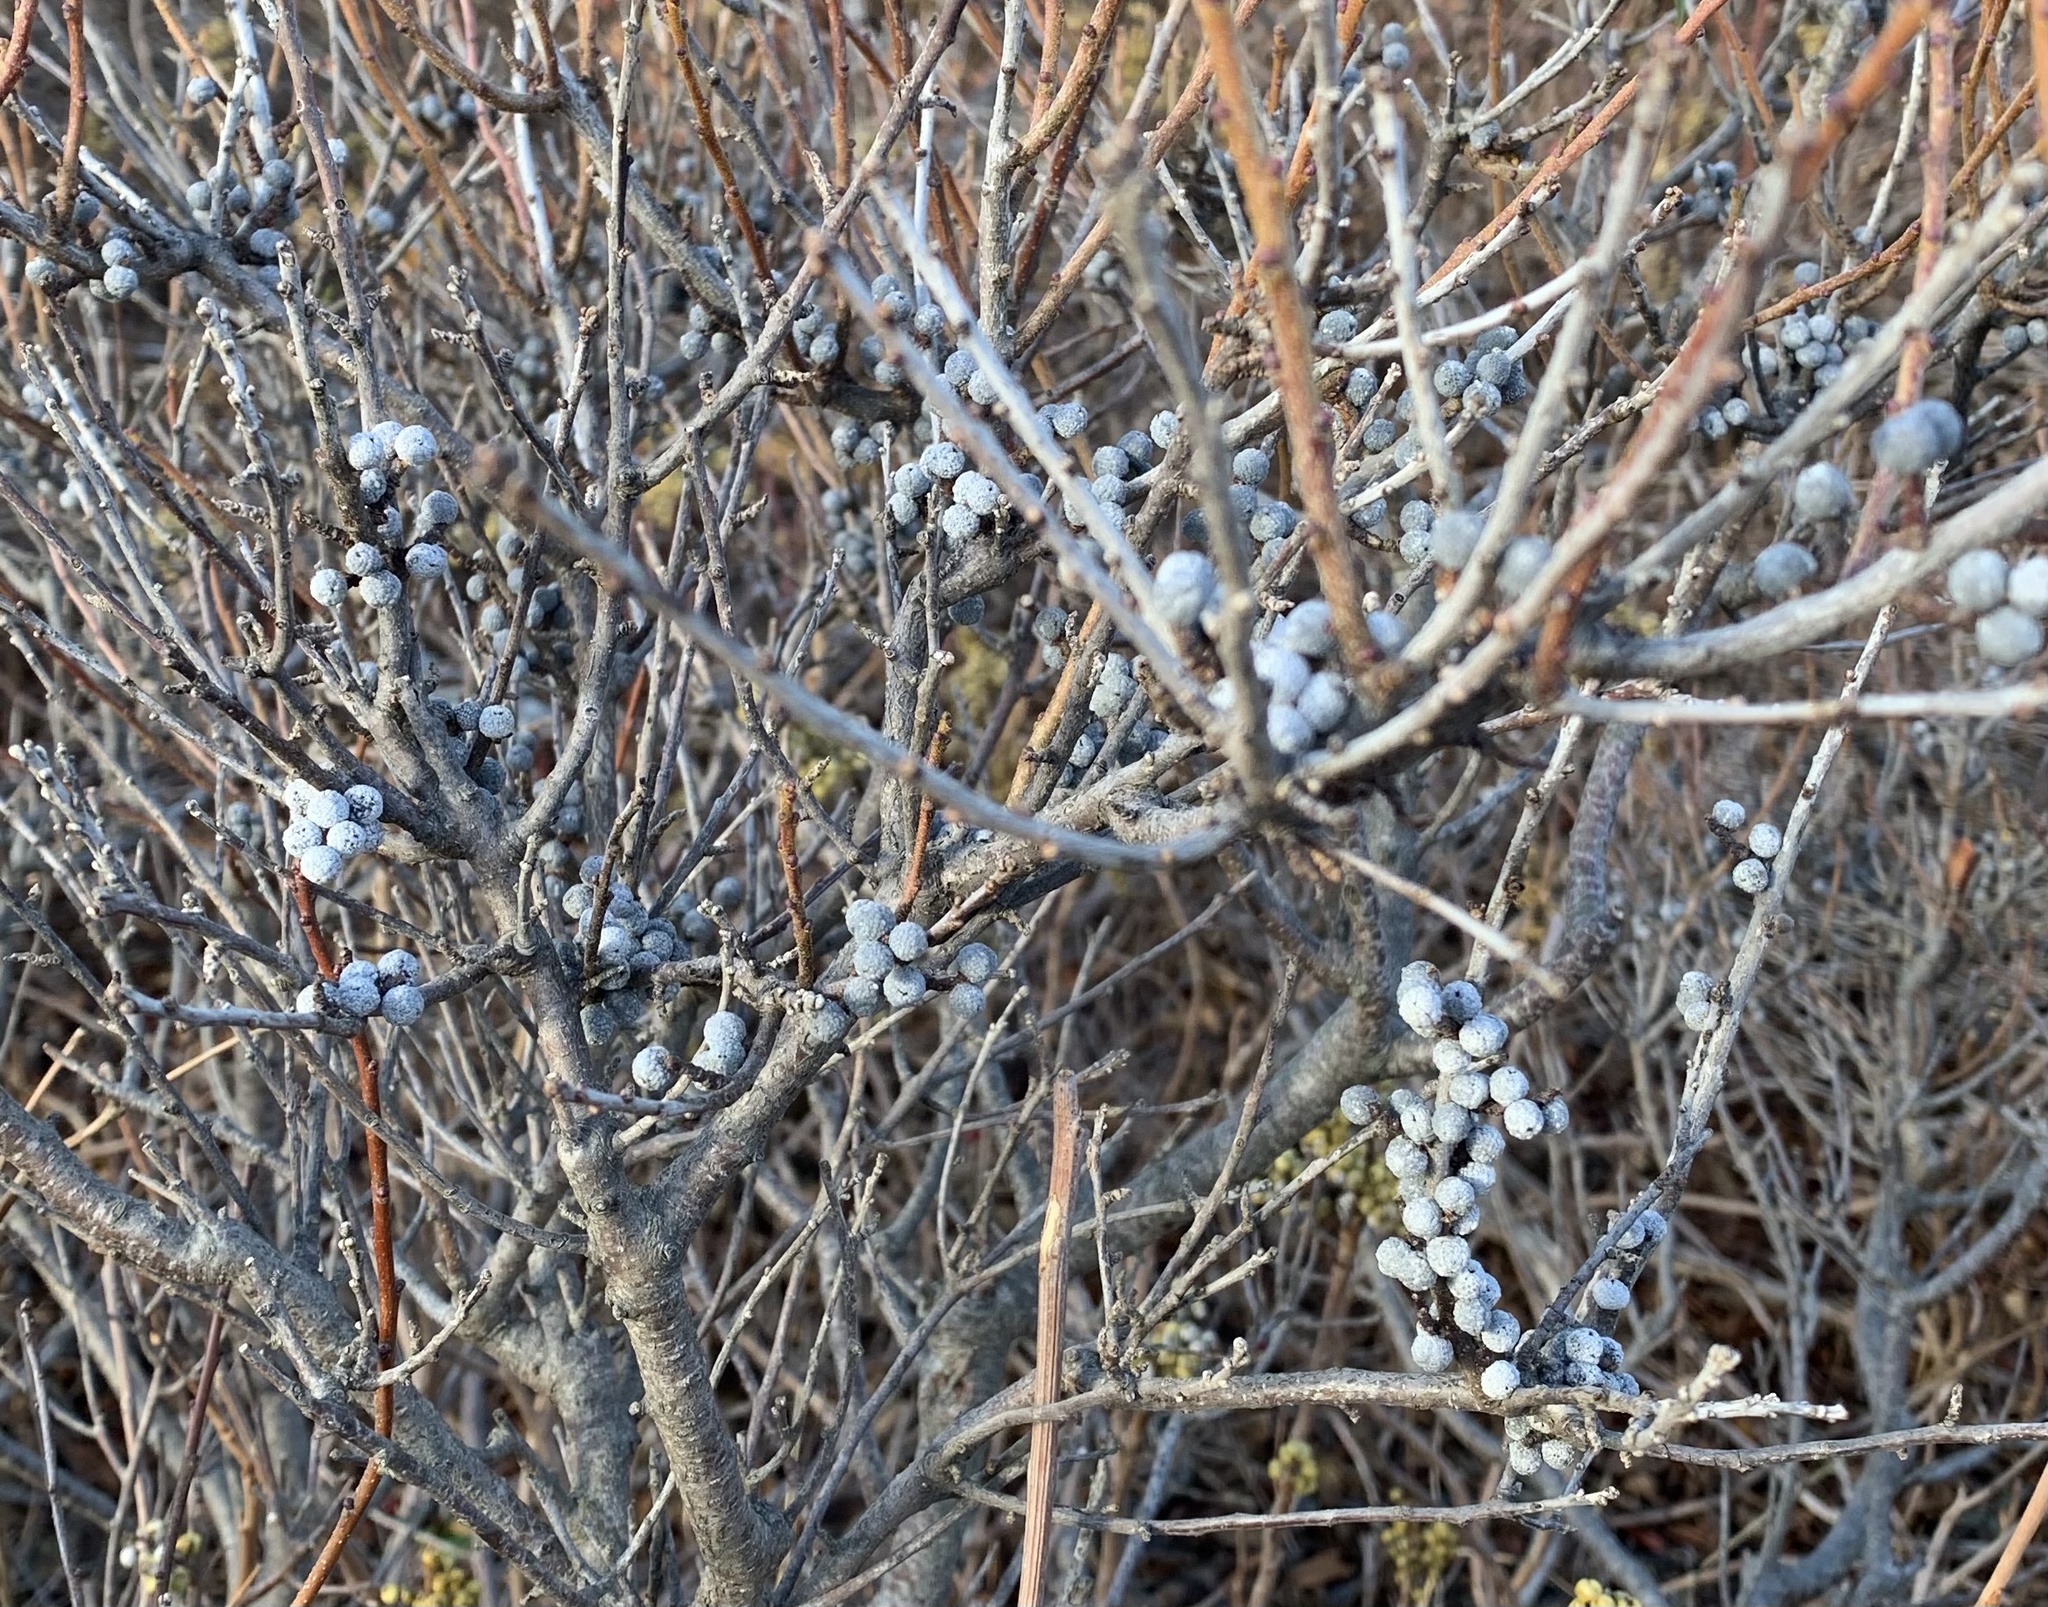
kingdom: Plantae
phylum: Tracheophyta
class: Magnoliopsida
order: Fagales
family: Myricaceae
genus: Morella
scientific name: Morella pensylvanica
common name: Northern bayberry
